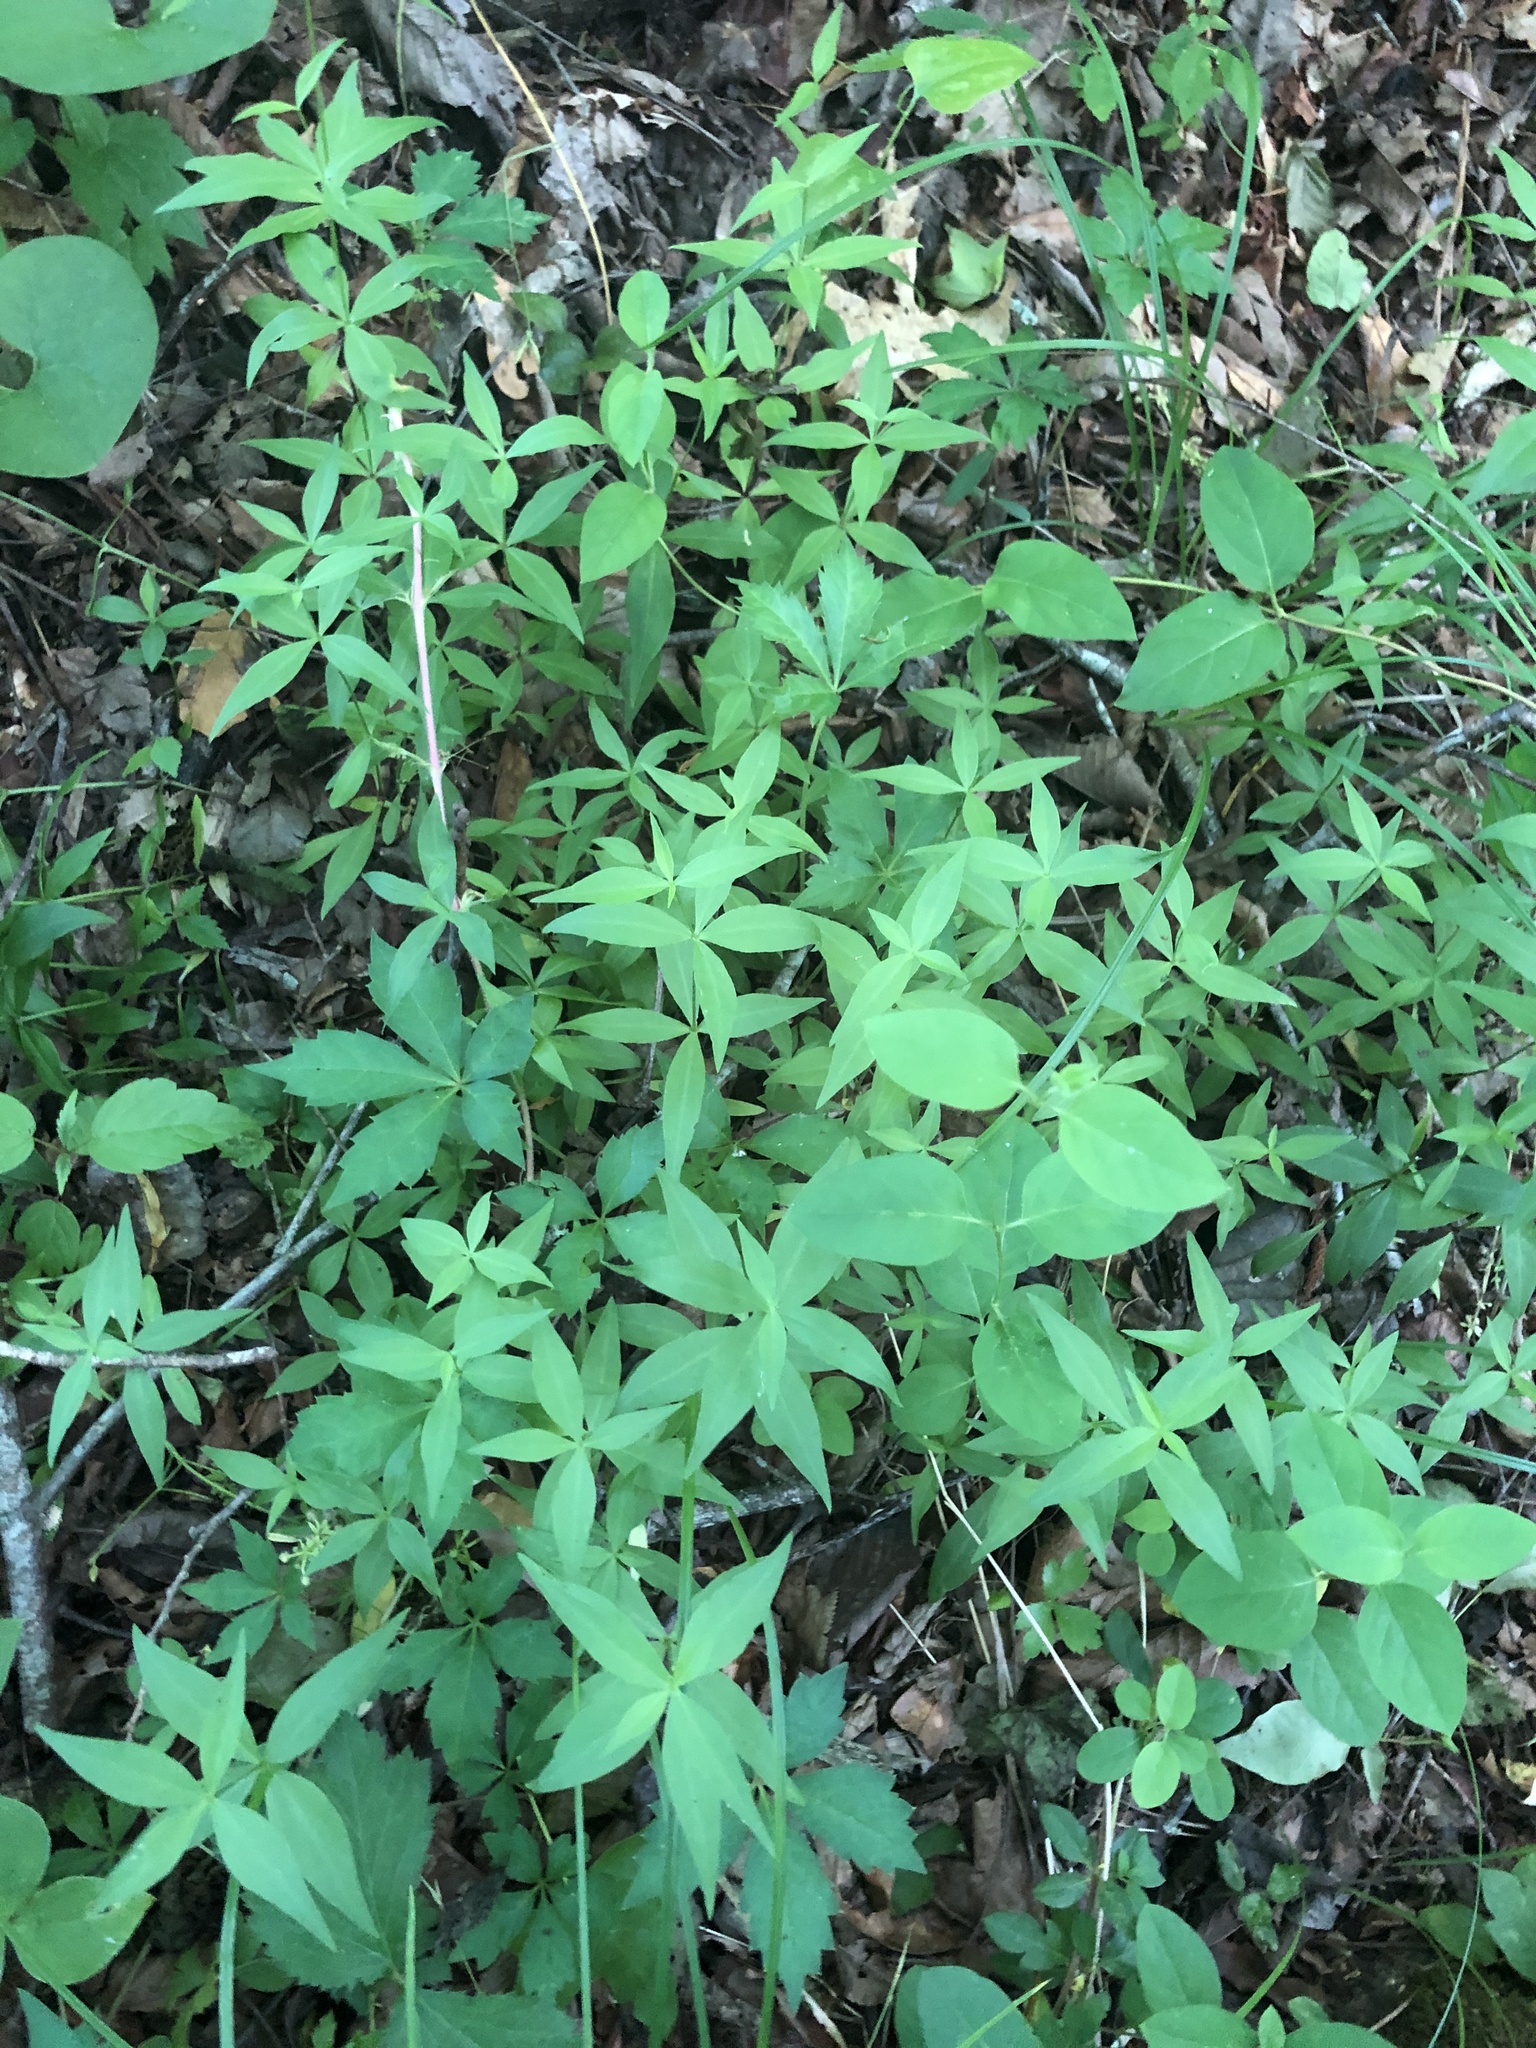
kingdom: Plantae
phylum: Tracheophyta
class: Magnoliopsida
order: Caryophyllales
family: Caryophyllaceae
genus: Silene
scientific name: Silene stellata
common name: Starry campion
